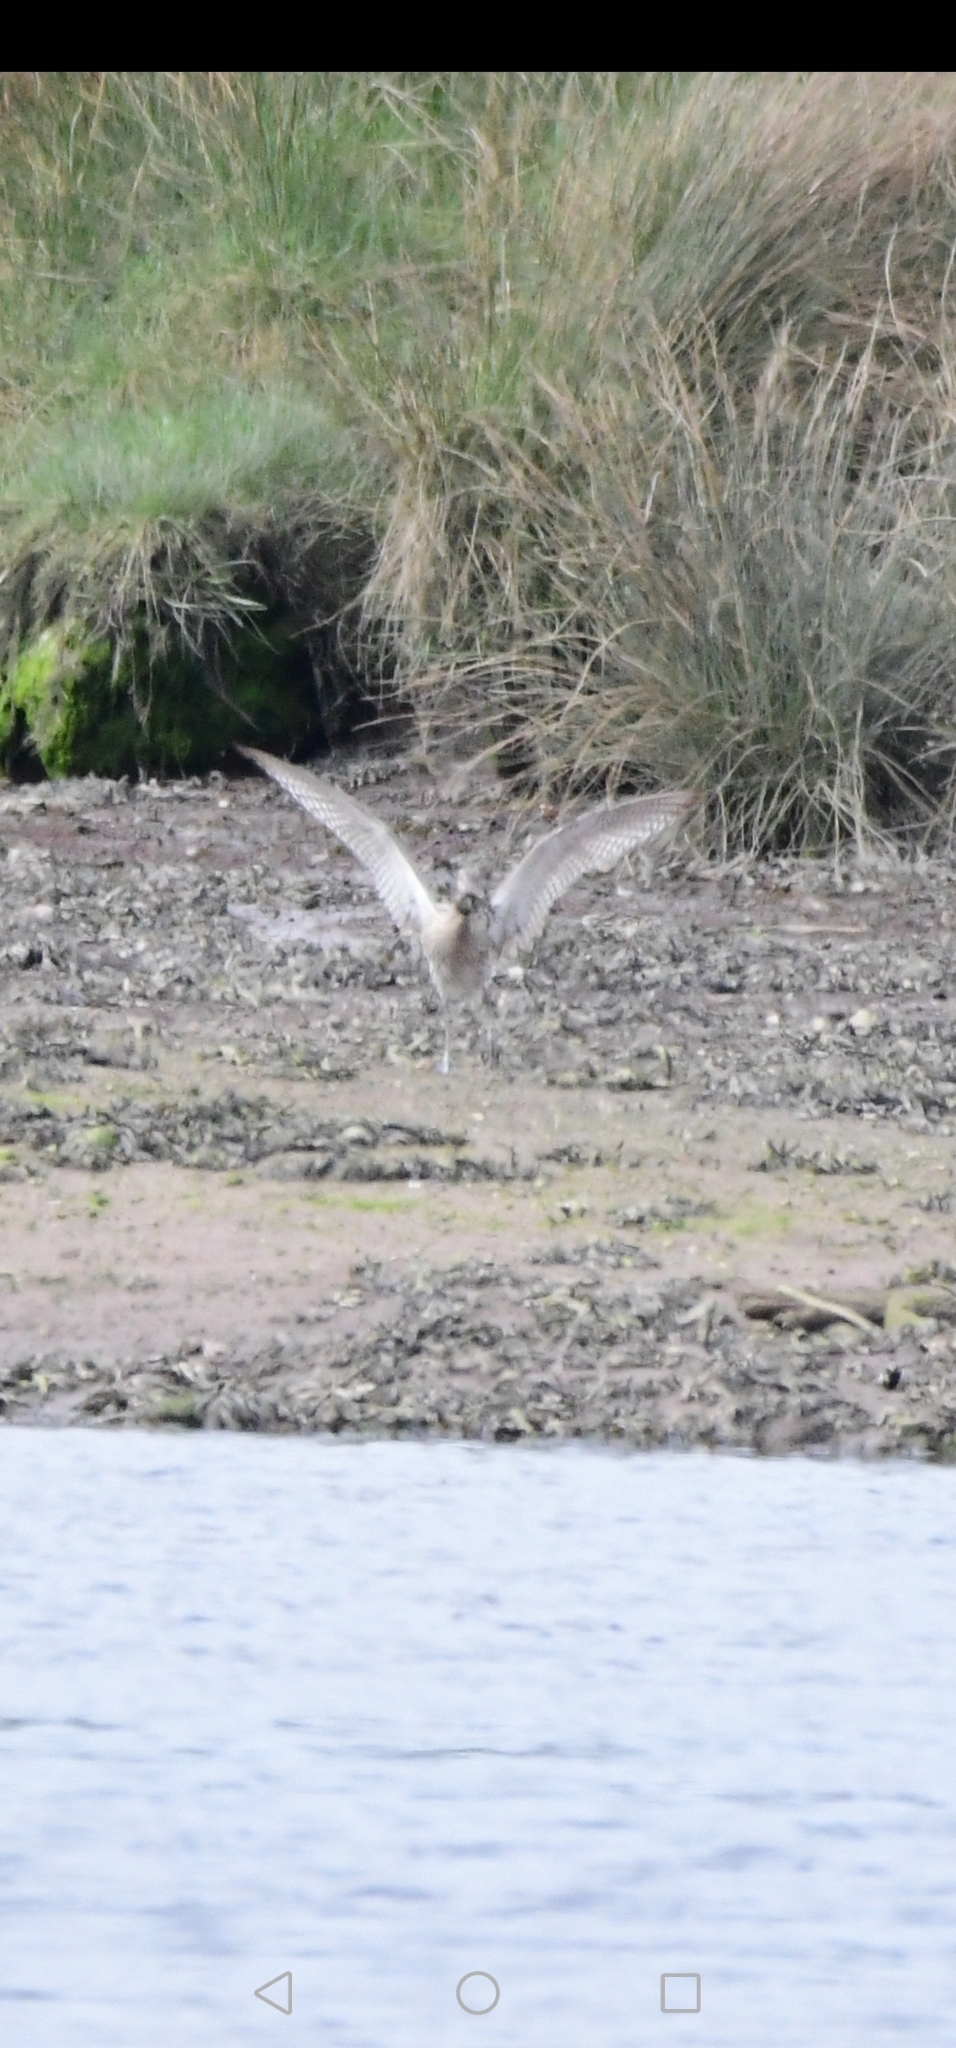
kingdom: Animalia
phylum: Chordata
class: Aves
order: Charadriiformes
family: Scolopacidae
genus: Numenius
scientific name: Numenius arquata
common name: Eurasian curlew
